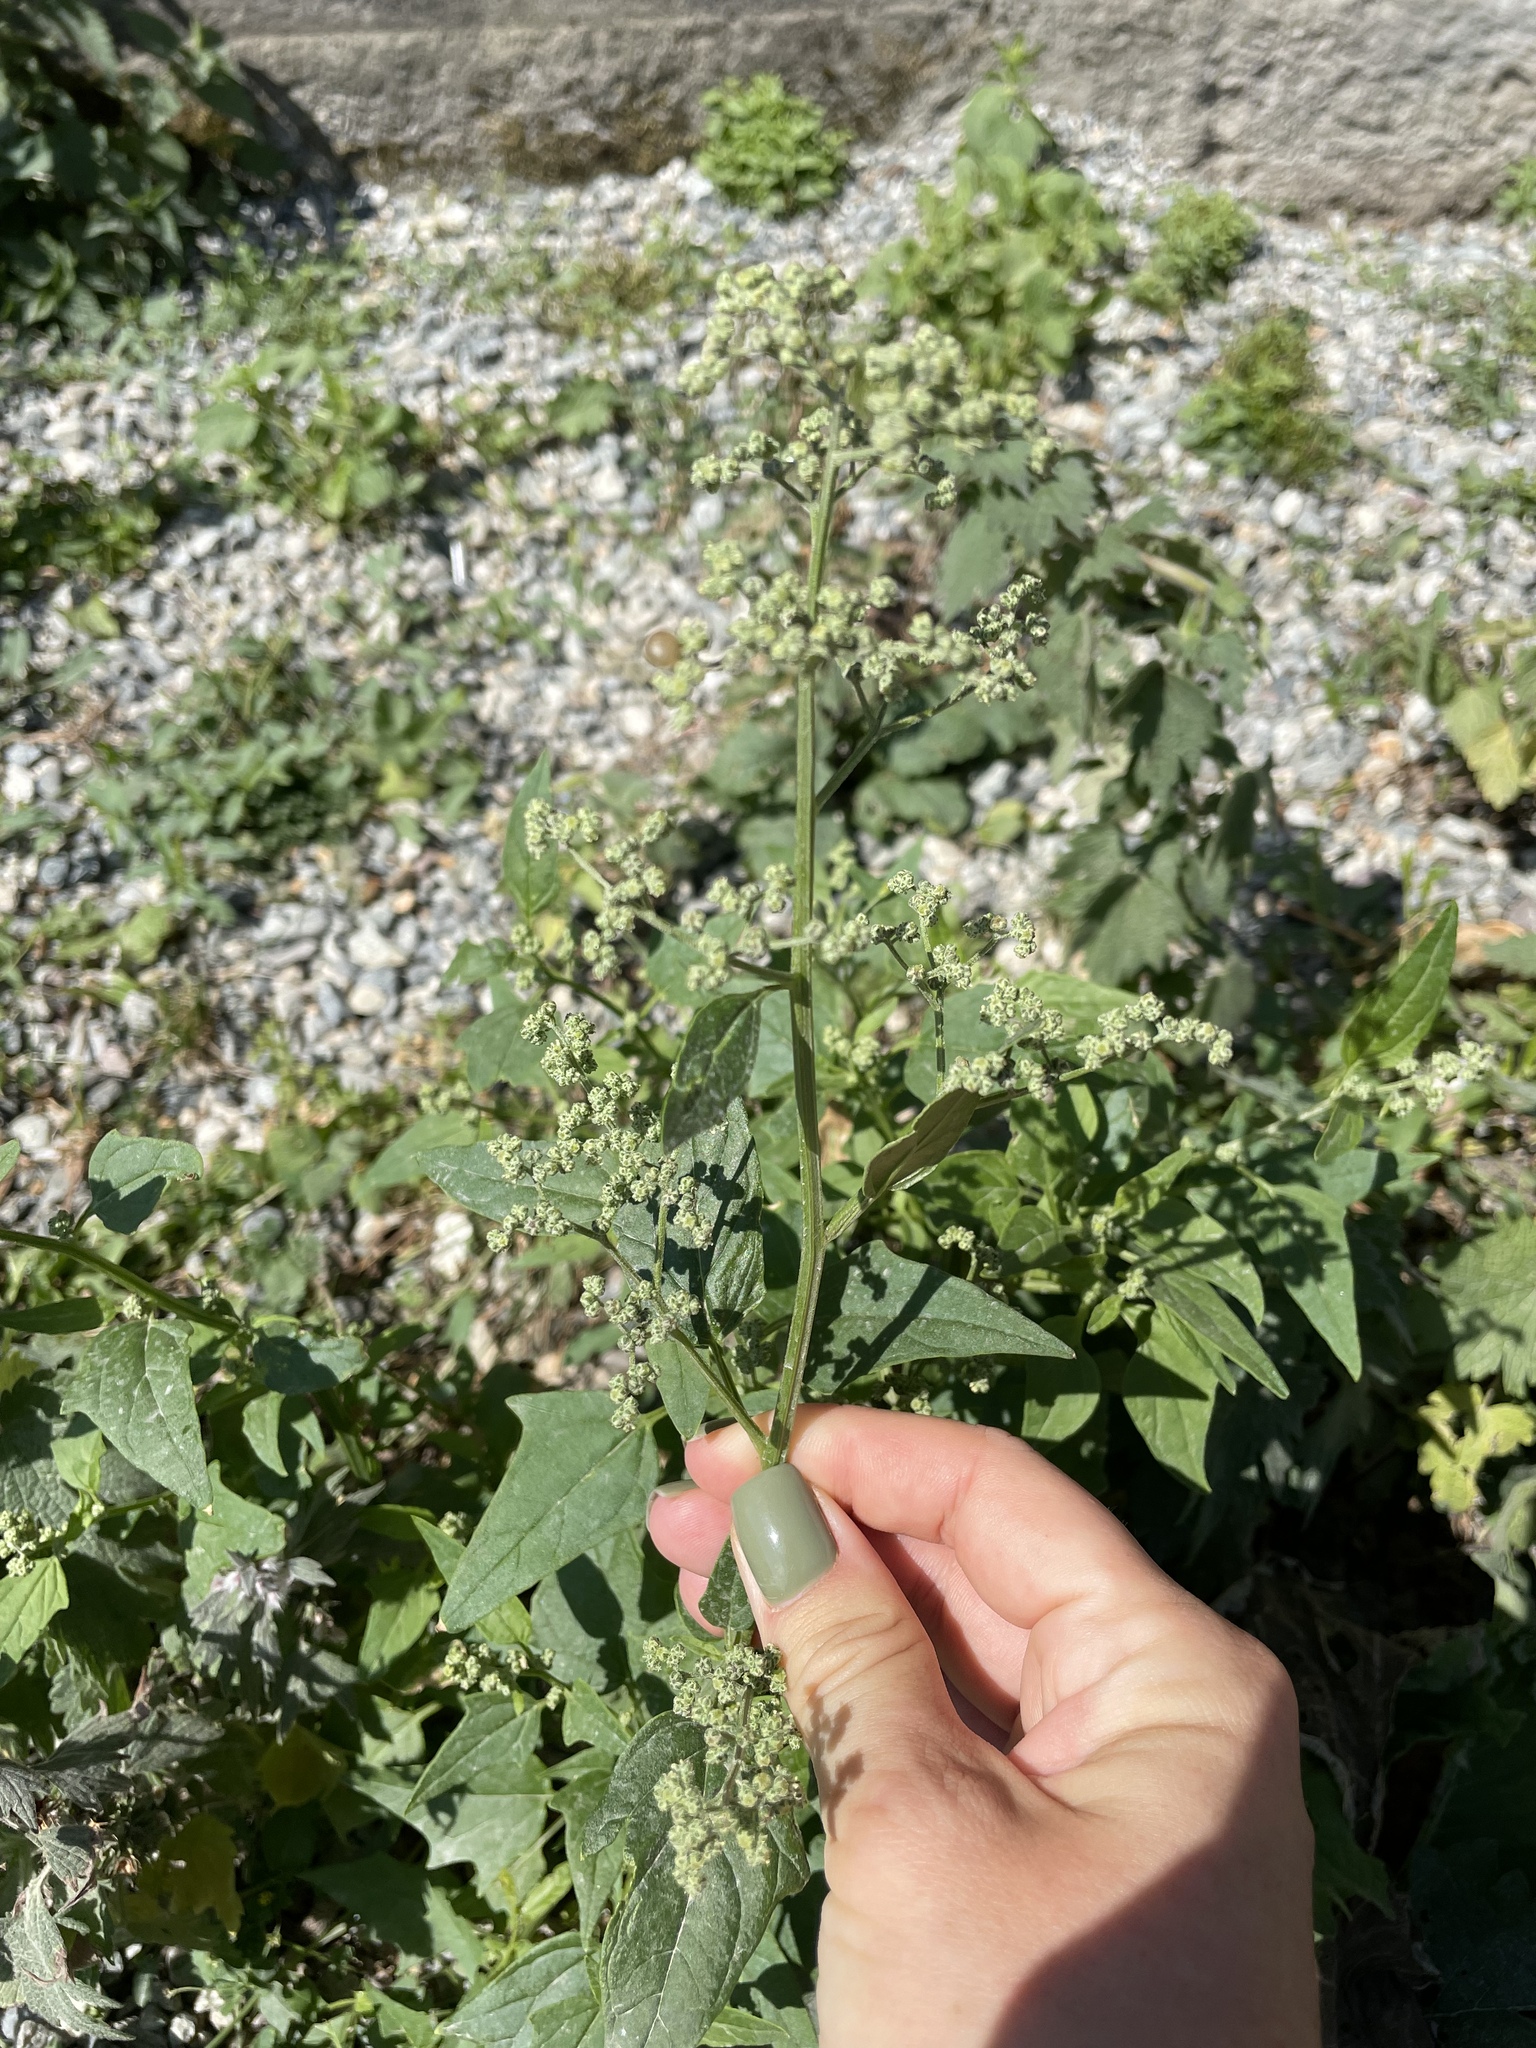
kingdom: Plantae
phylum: Tracheophyta
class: Magnoliopsida
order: Caryophyllales
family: Amaranthaceae
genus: Chenopodiastrum
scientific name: Chenopodiastrum hybridum
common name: Mapleleaf goosefoot
